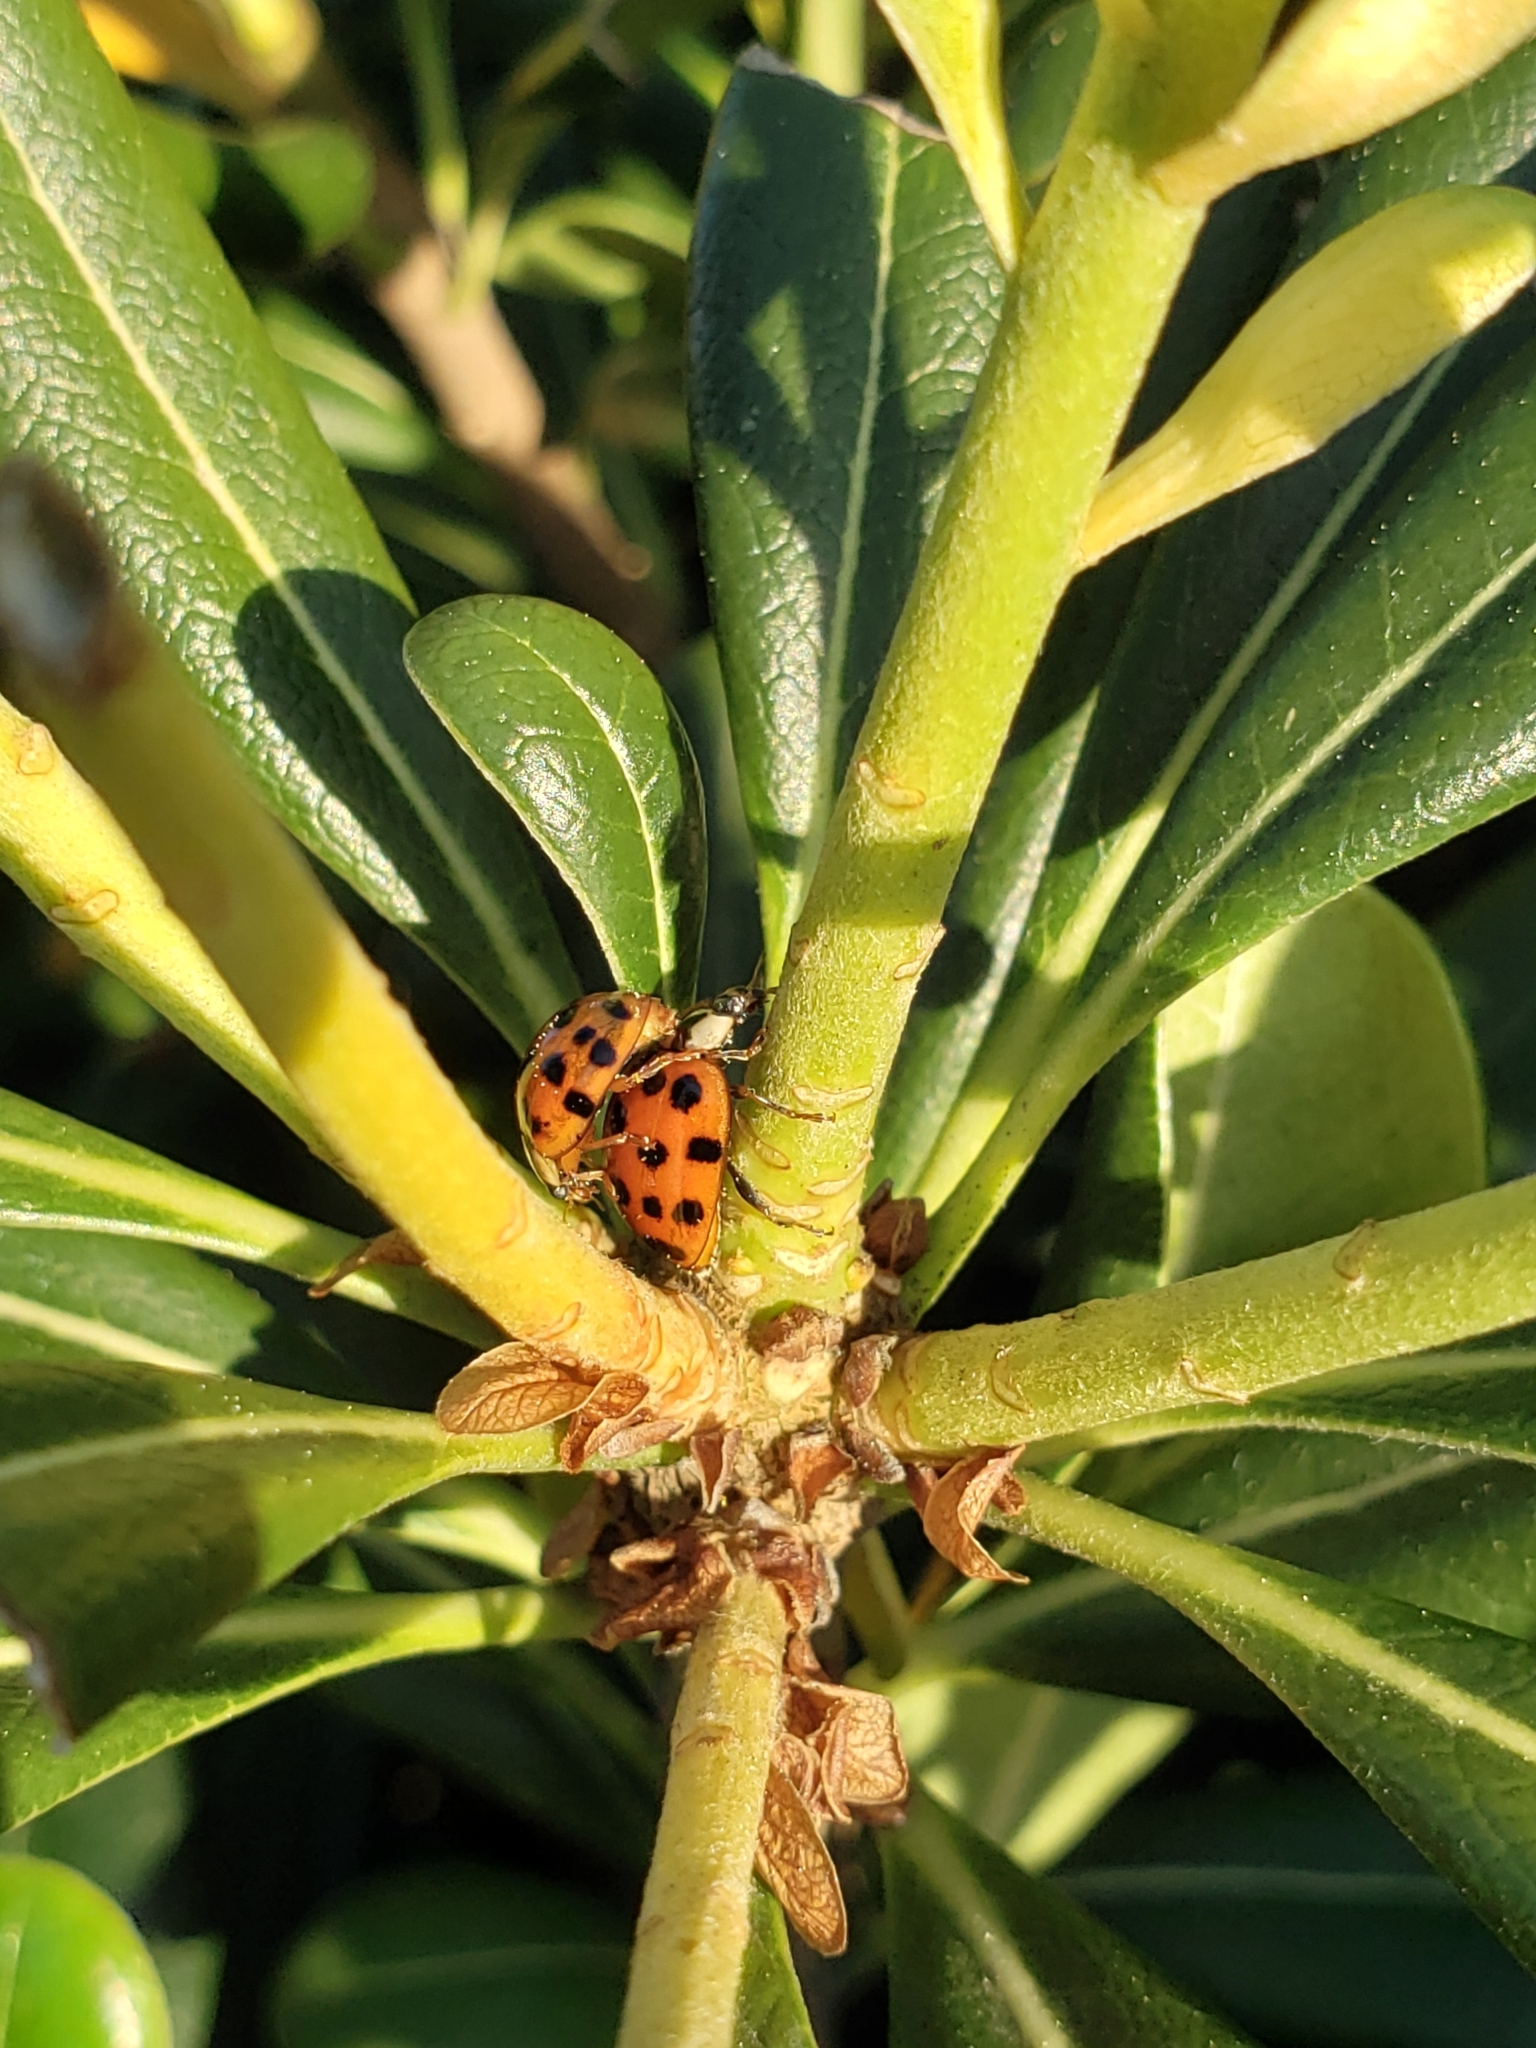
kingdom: Animalia
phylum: Arthropoda
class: Insecta
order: Coleoptera
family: Coccinellidae
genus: Harmonia
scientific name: Harmonia axyridis
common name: Harlequin ladybird
